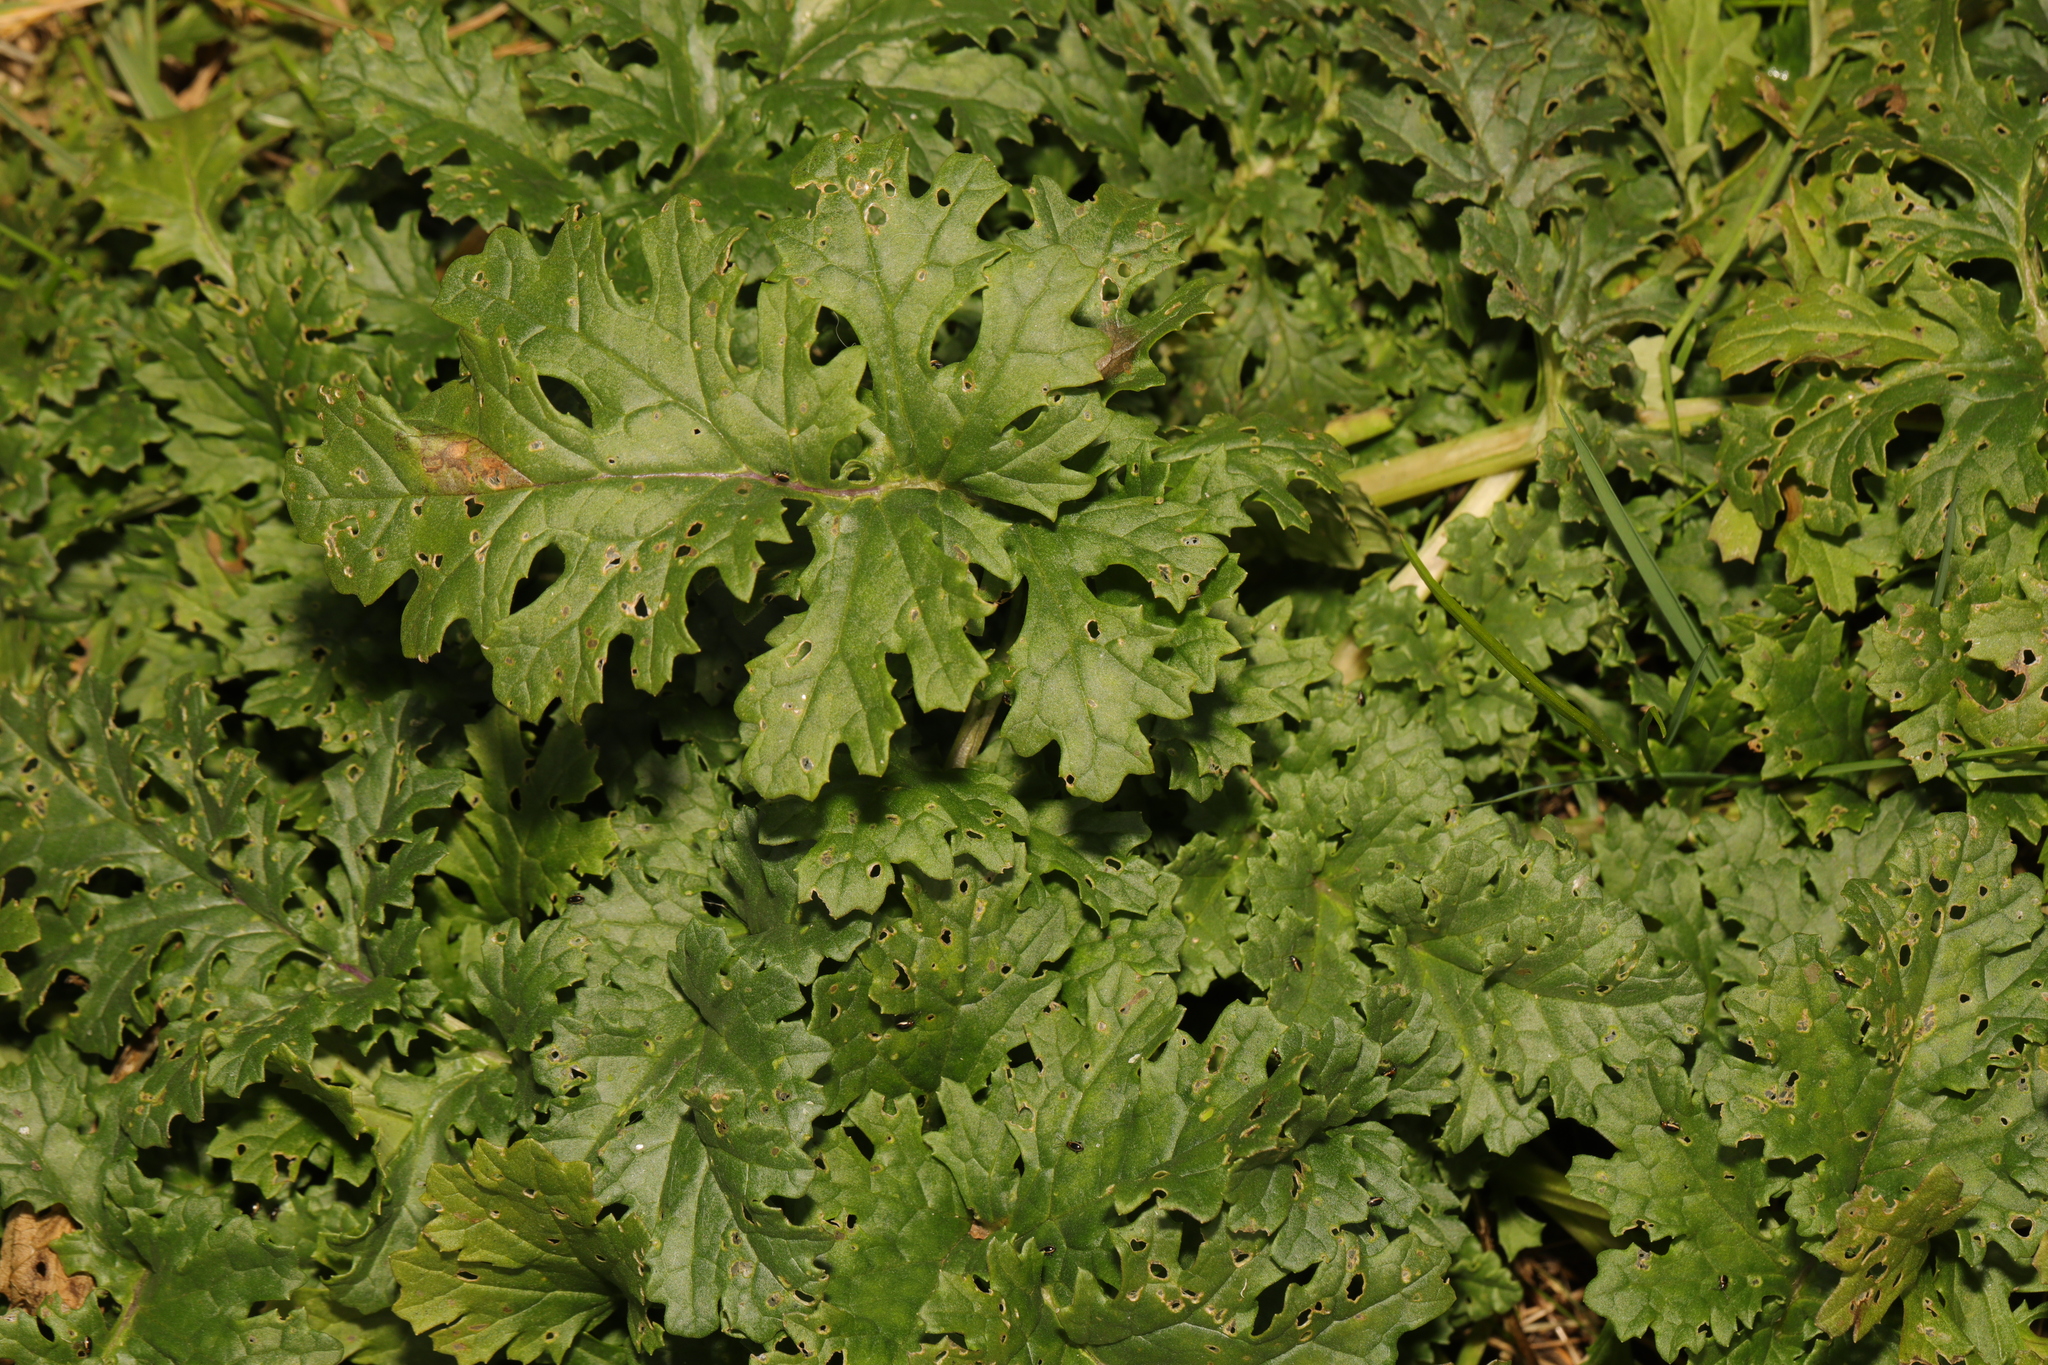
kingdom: Plantae
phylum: Tracheophyta
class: Magnoliopsida
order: Asterales
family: Asteraceae
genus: Jacobaea
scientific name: Jacobaea vulgaris
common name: Stinking willie
